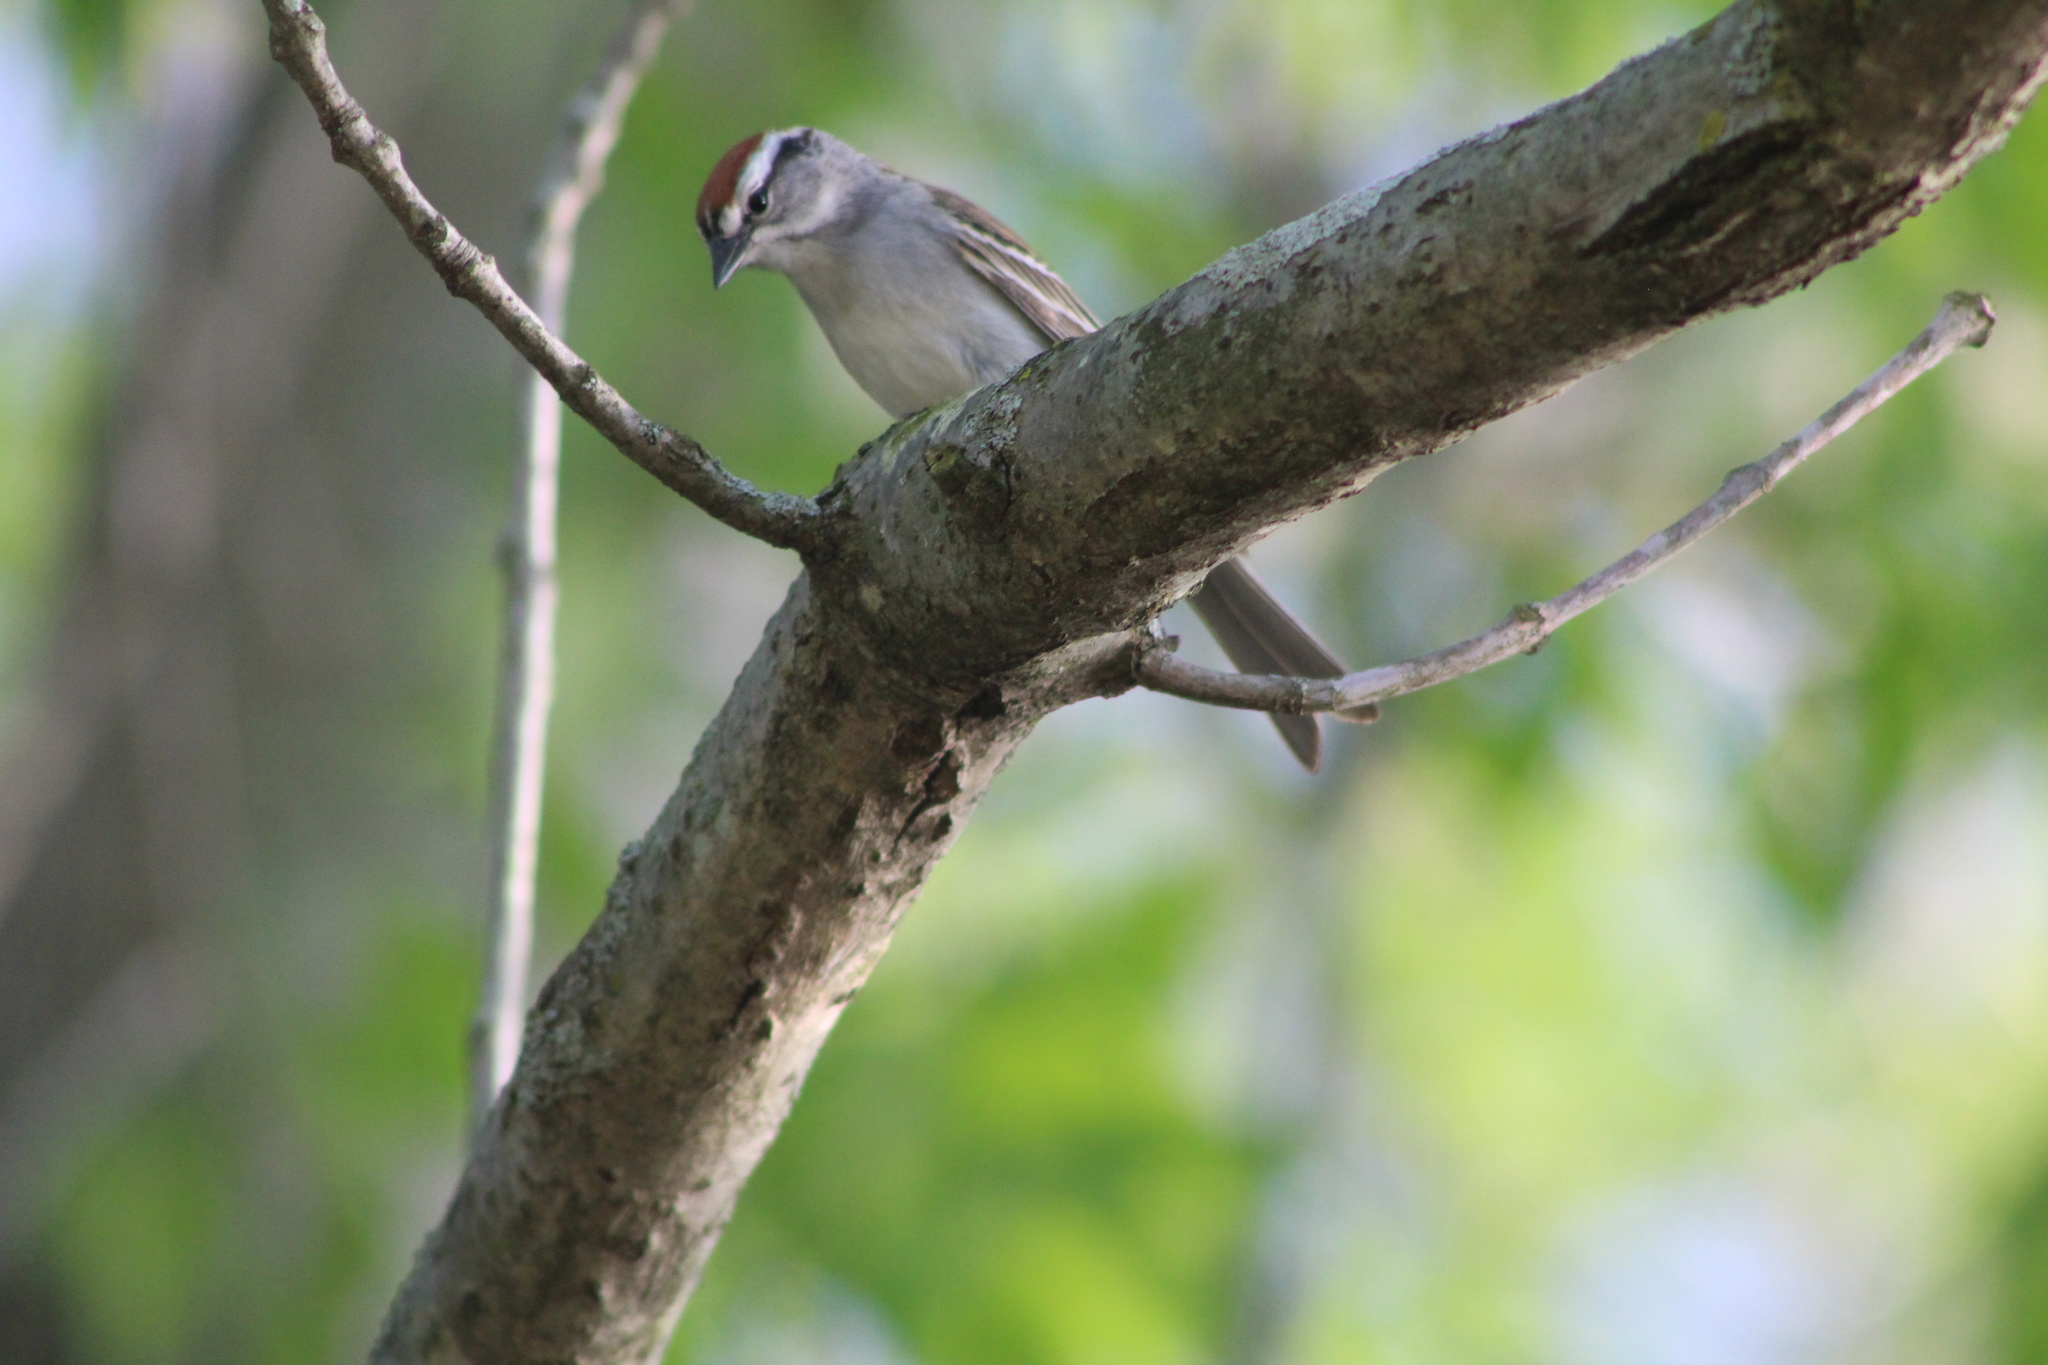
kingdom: Animalia
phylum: Chordata
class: Aves
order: Passeriformes
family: Passerellidae
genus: Spizella
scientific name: Spizella passerina
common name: Chipping sparrow
